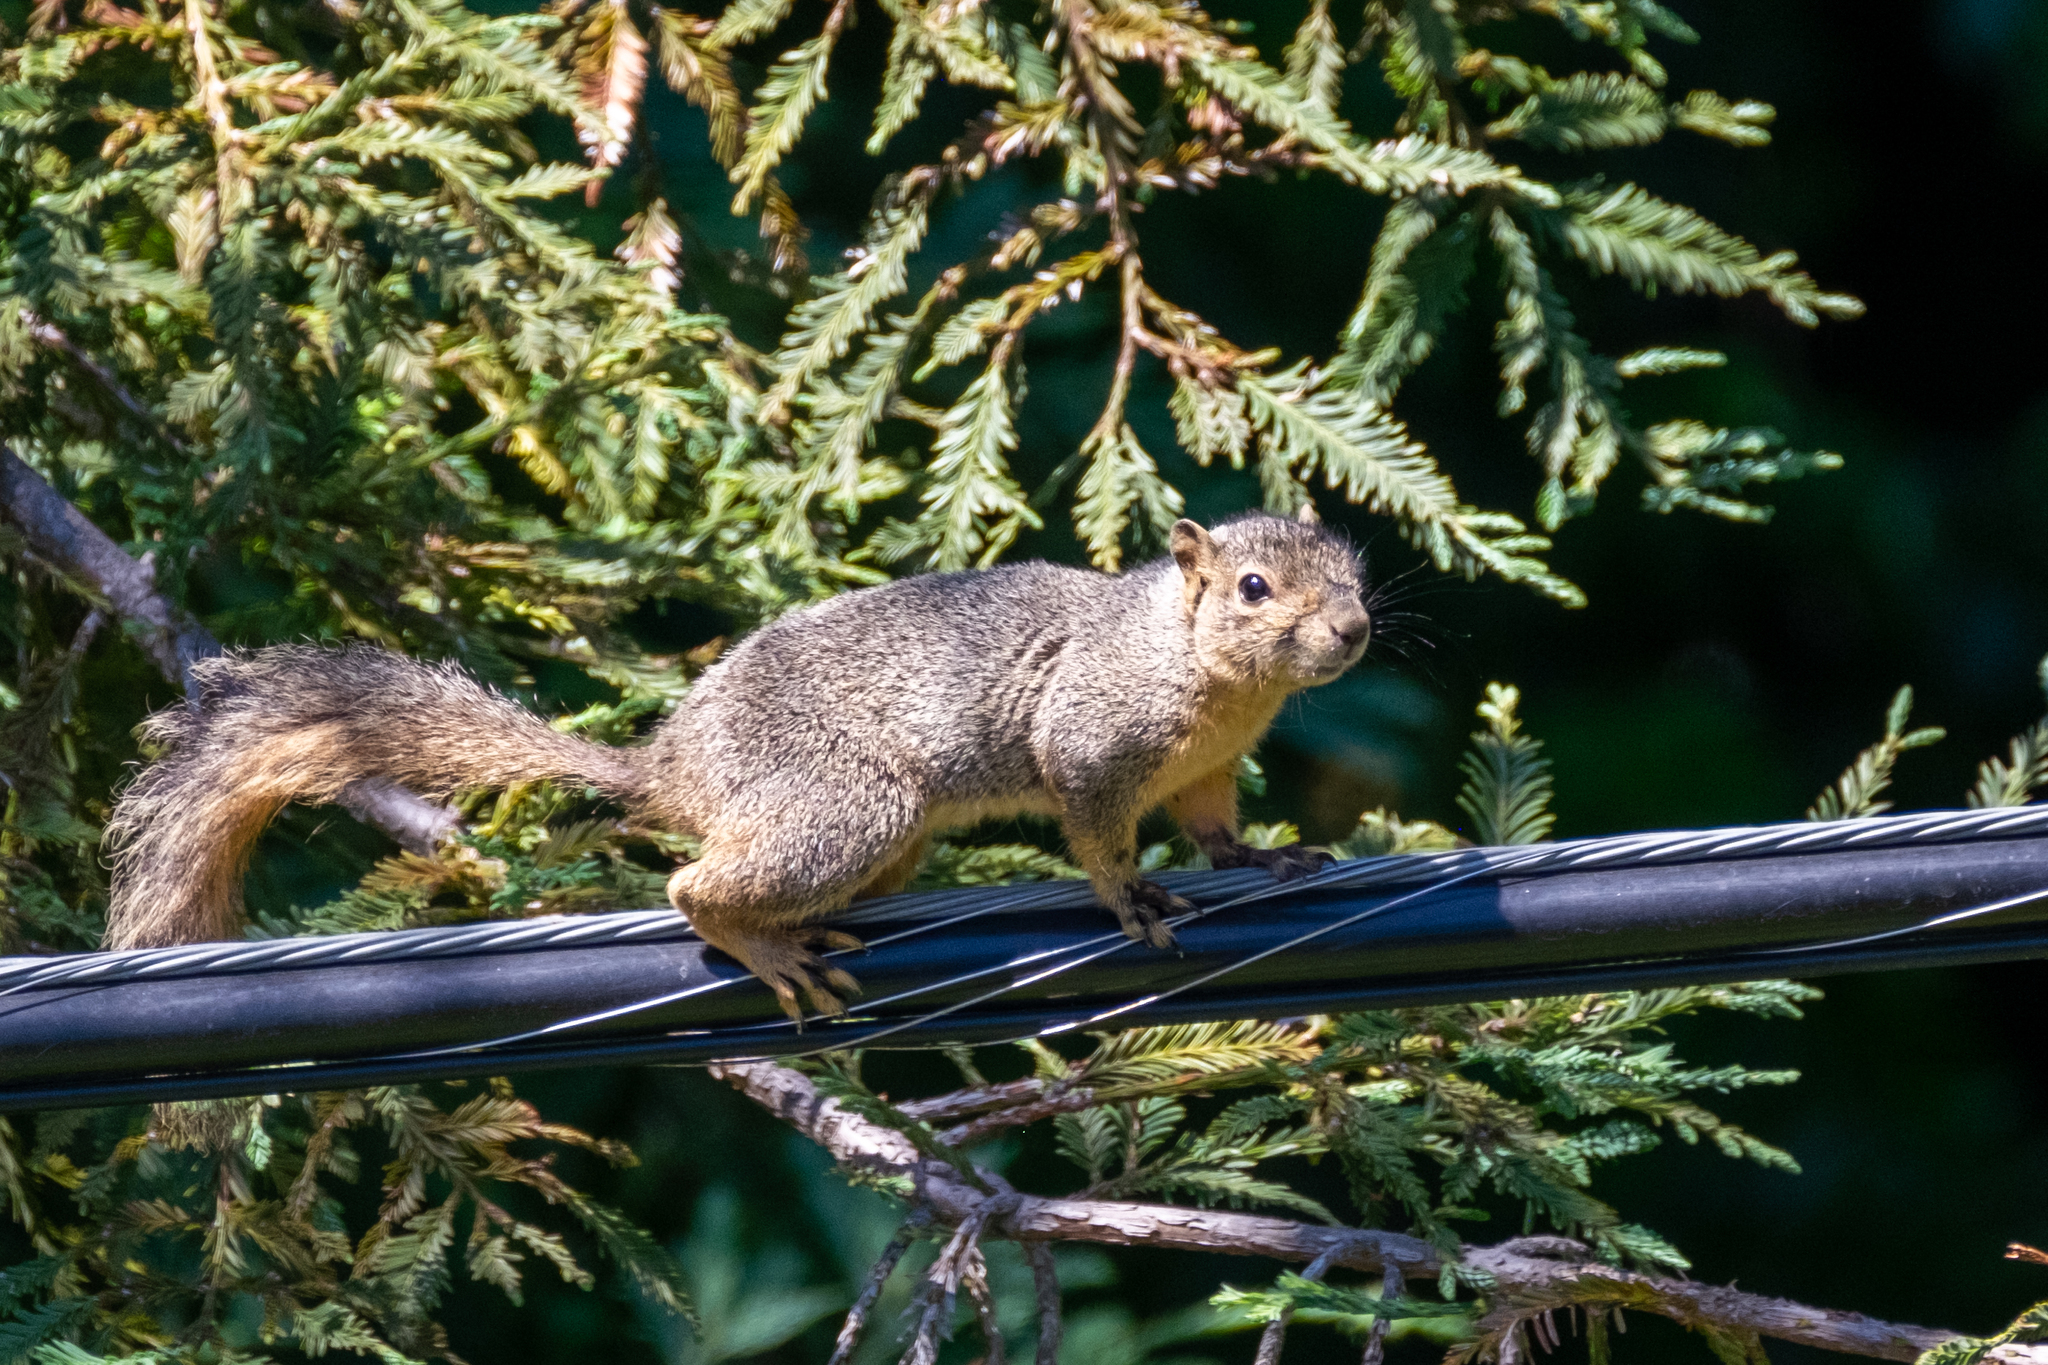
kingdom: Animalia
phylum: Chordata
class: Mammalia
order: Rodentia
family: Sciuridae
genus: Sciurus
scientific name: Sciurus niger
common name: Fox squirrel
